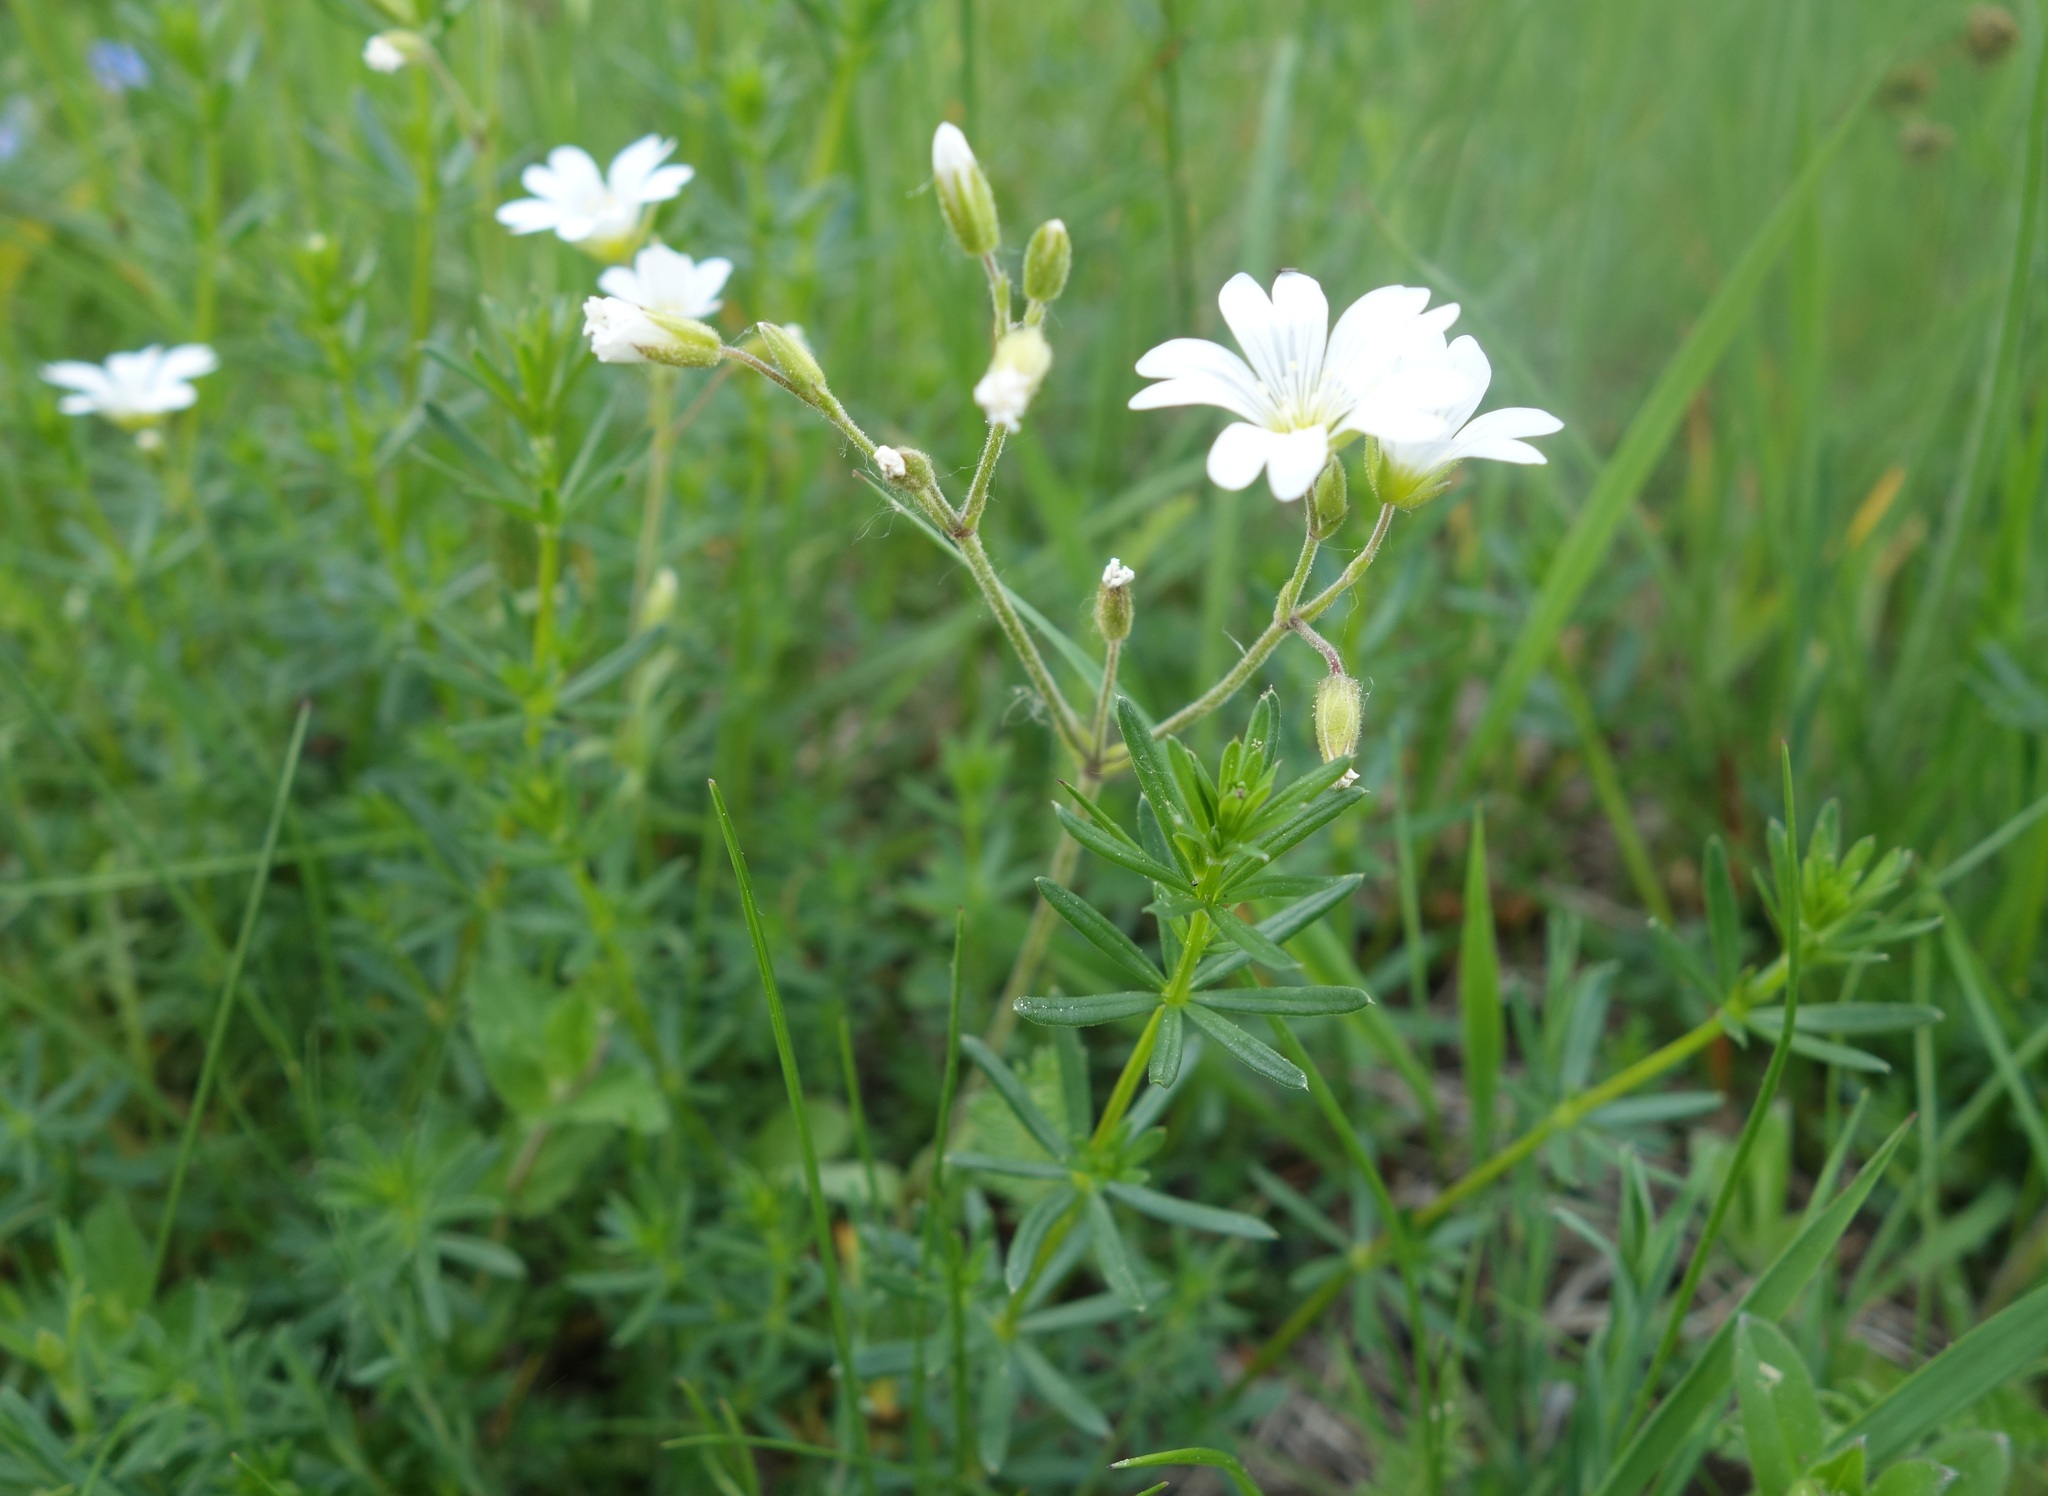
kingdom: Plantae
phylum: Tracheophyta
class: Magnoliopsida
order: Caryophyllales
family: Caryophyllaceae
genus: Cerastium
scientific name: Cerastium arvense
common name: Field mouse-ear
